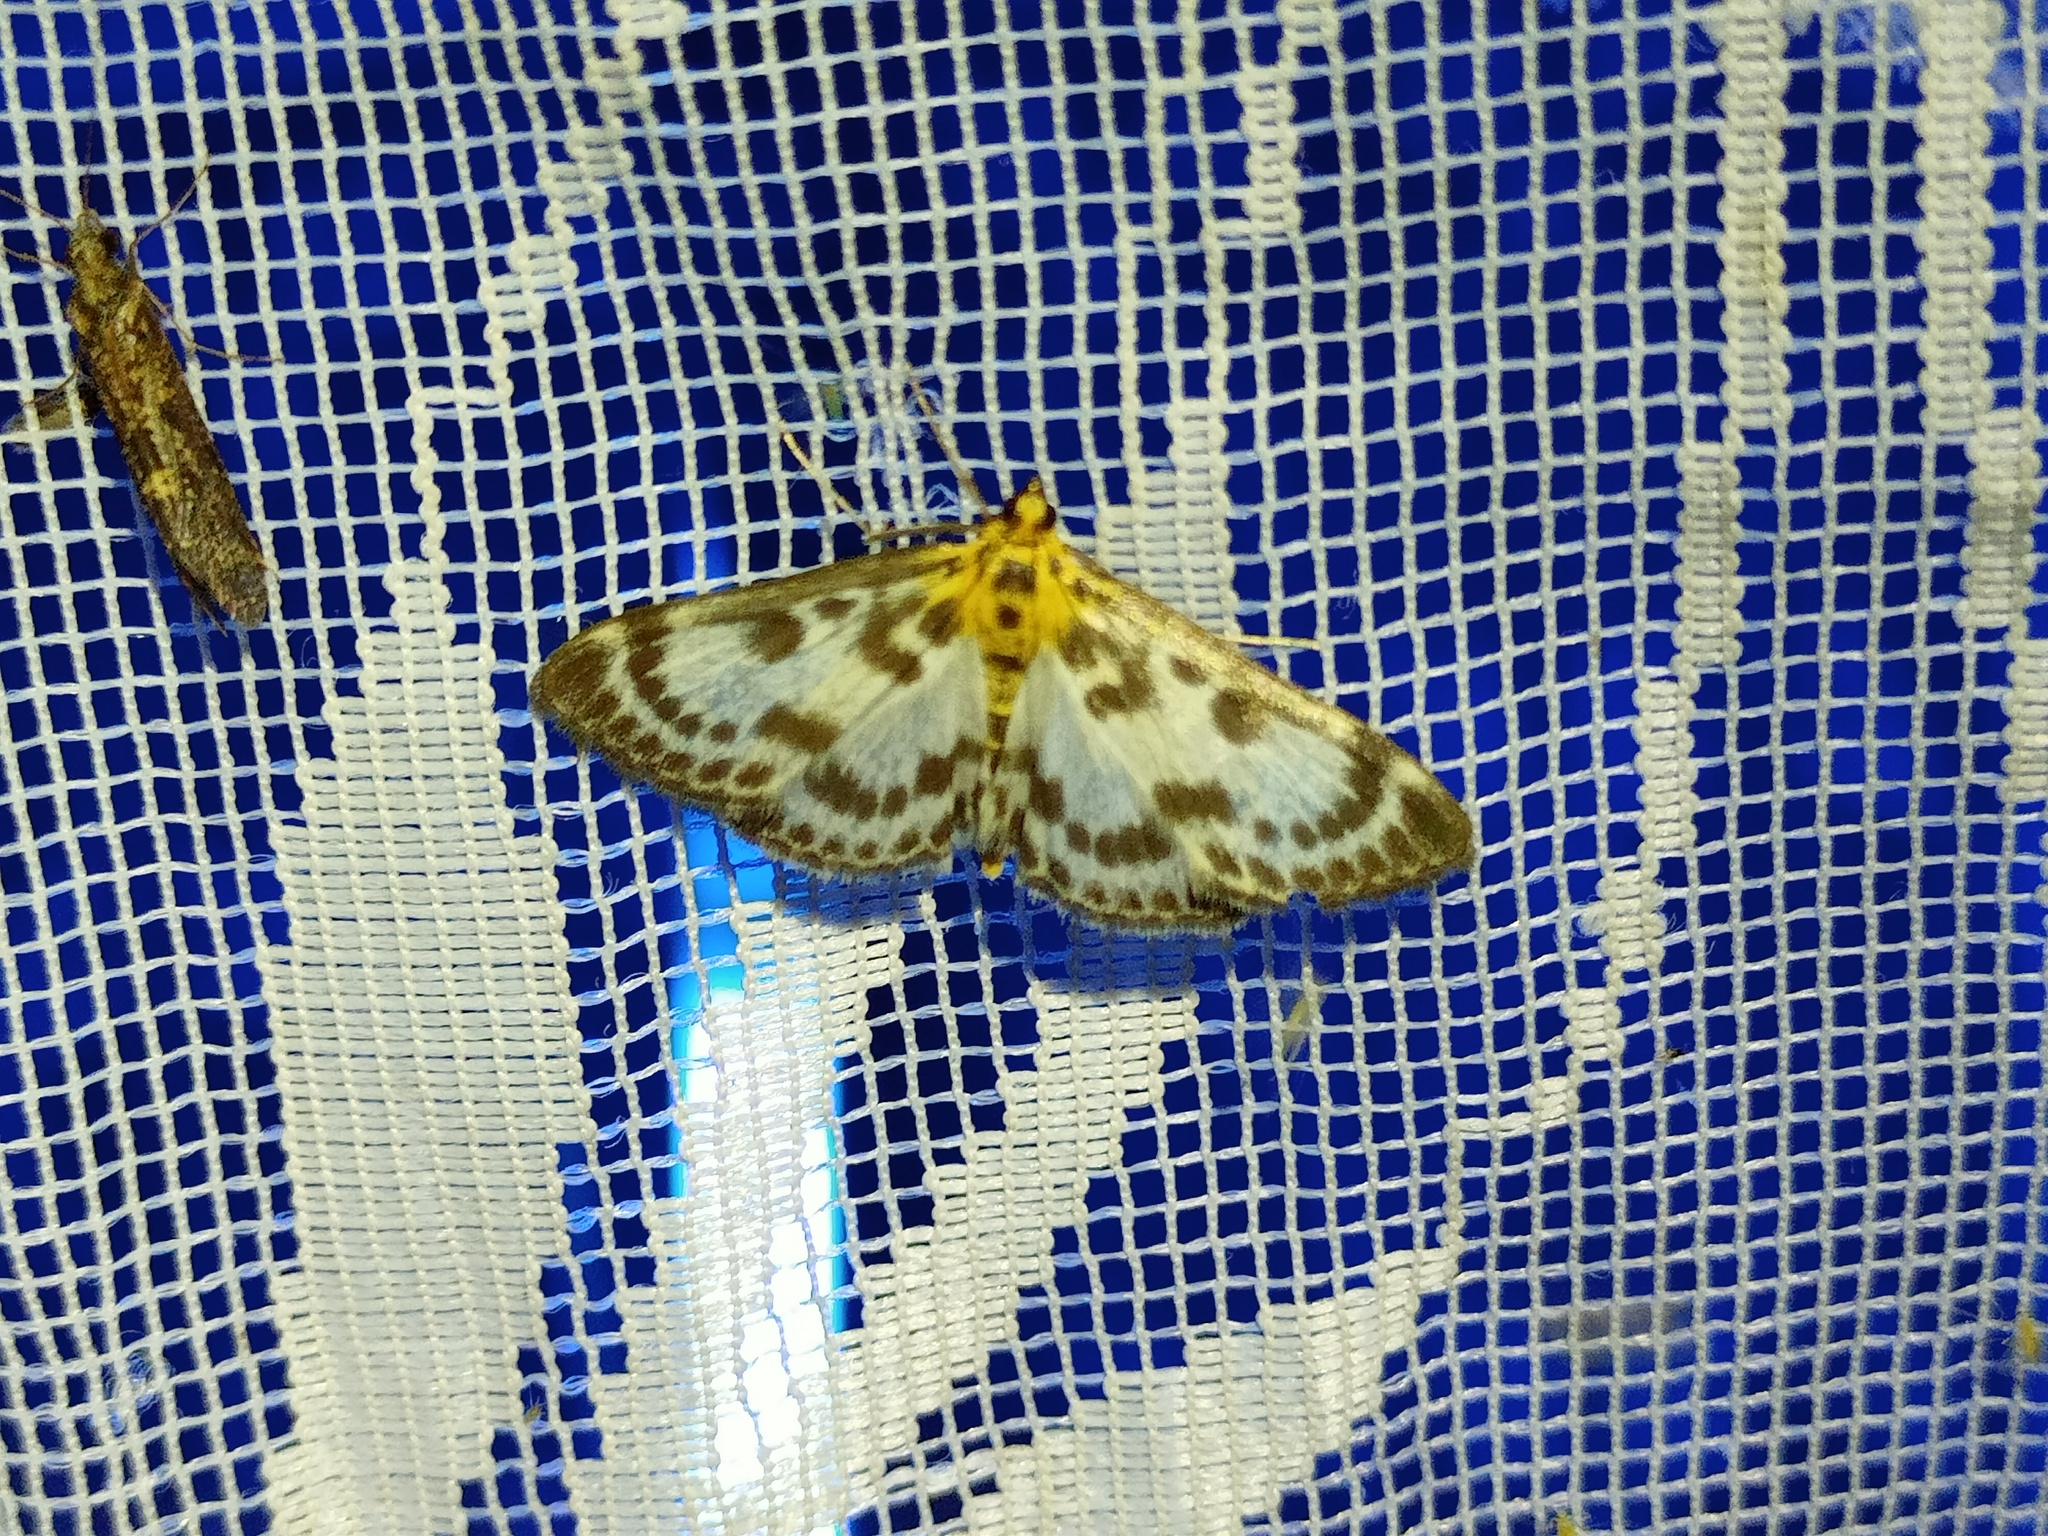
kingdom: Animalia
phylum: Arthropoda
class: Insecta
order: Lepidoptera
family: Crambidae
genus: Anania
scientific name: Anania hortulata
